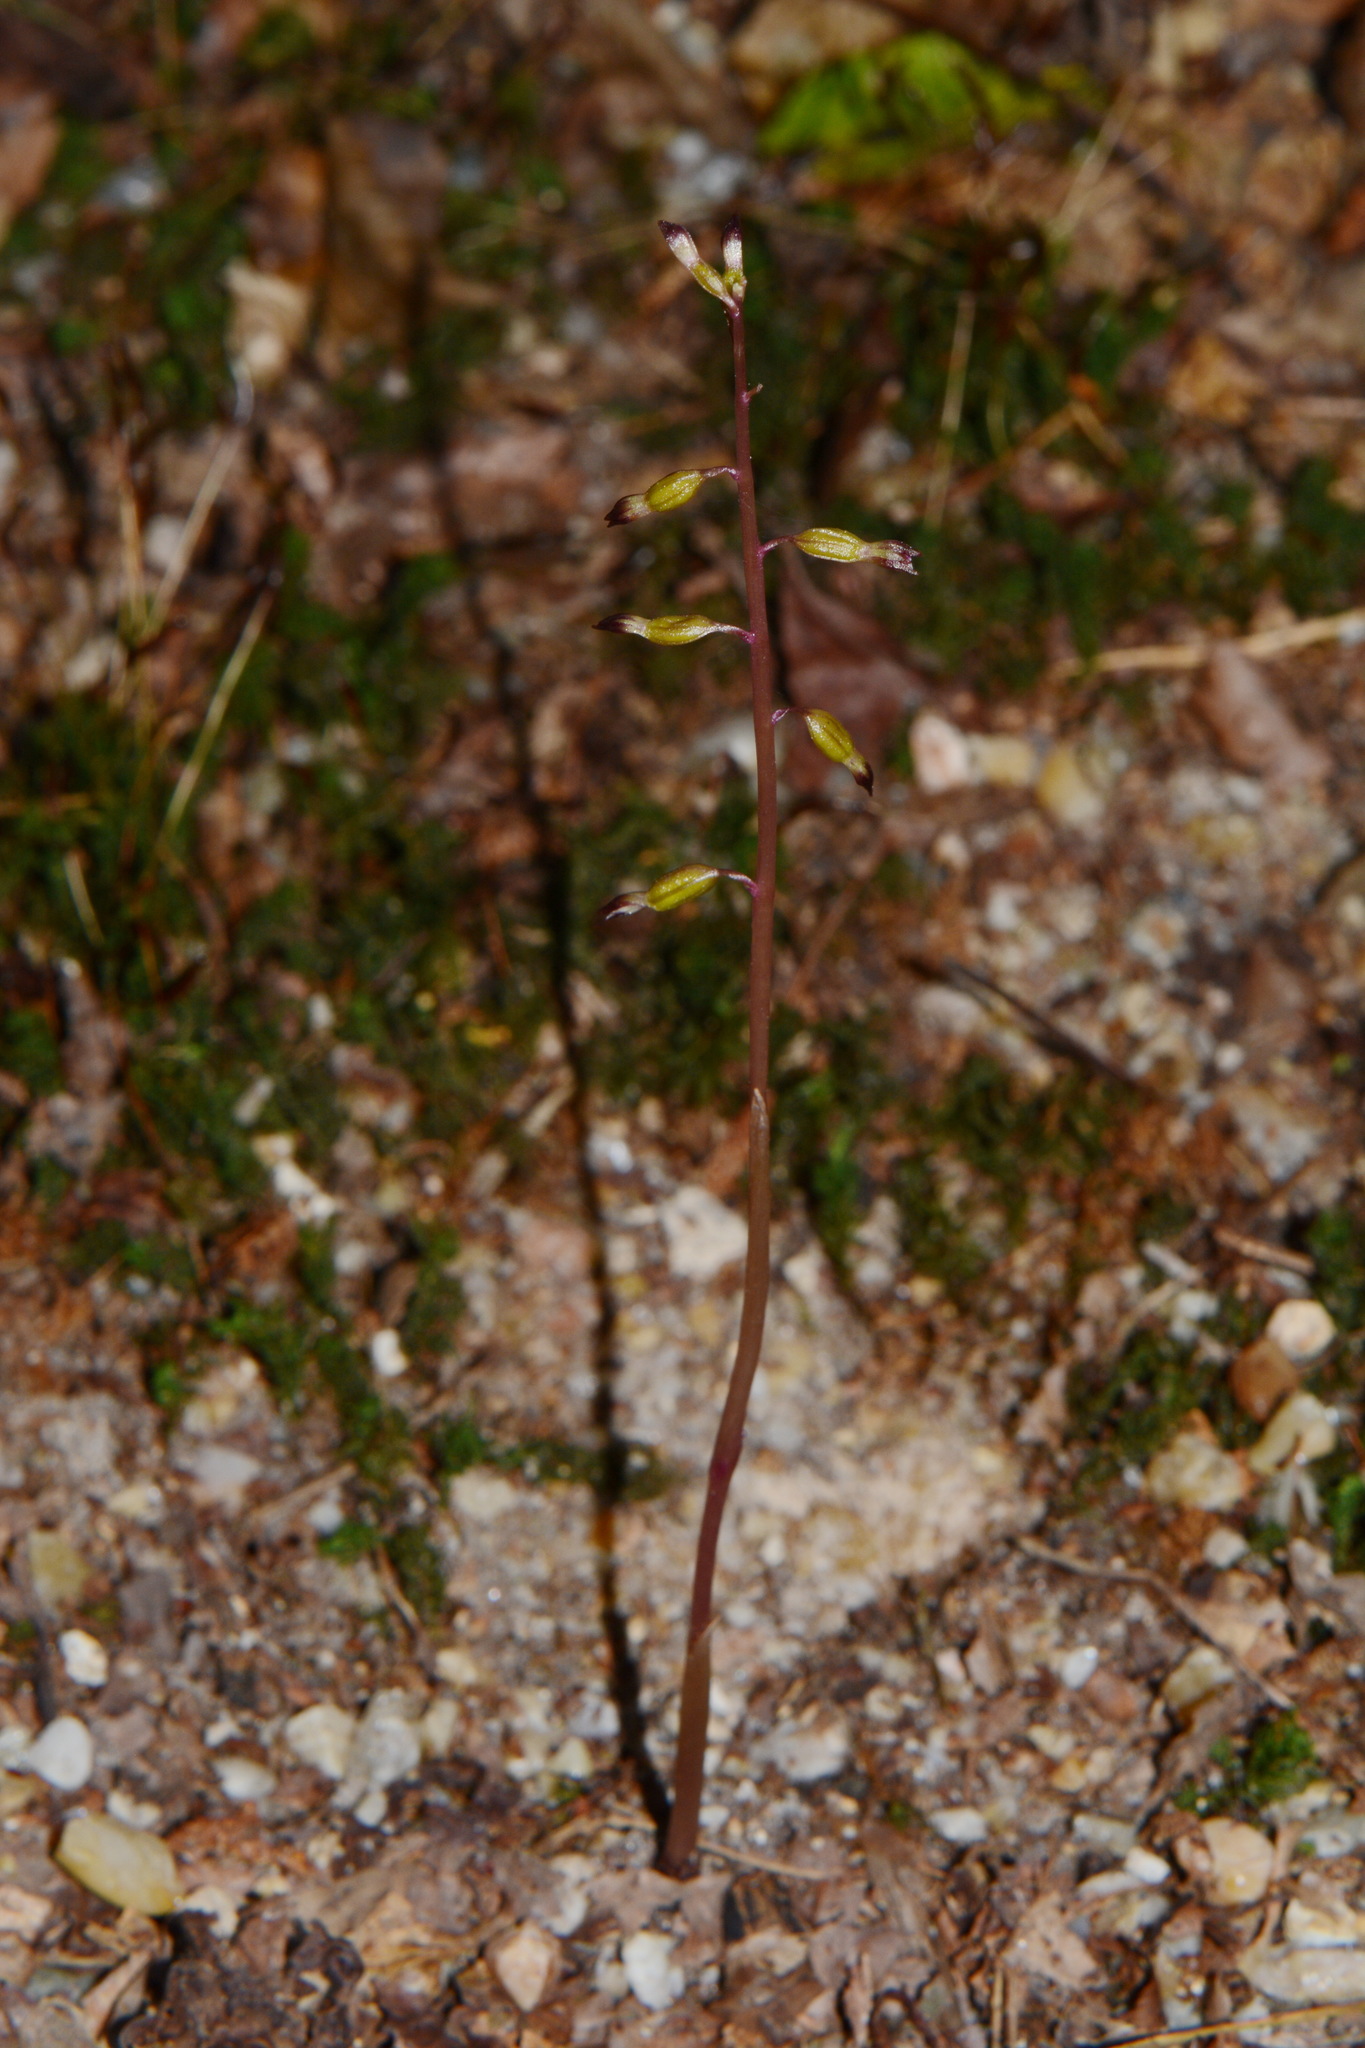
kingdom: Plantae
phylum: Tracheophyta
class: Liliopsida
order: Asparagales
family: Orchidaceae
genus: Corallorhiza
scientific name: Corallorhiza odontorhiza
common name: Autumn coralroot
